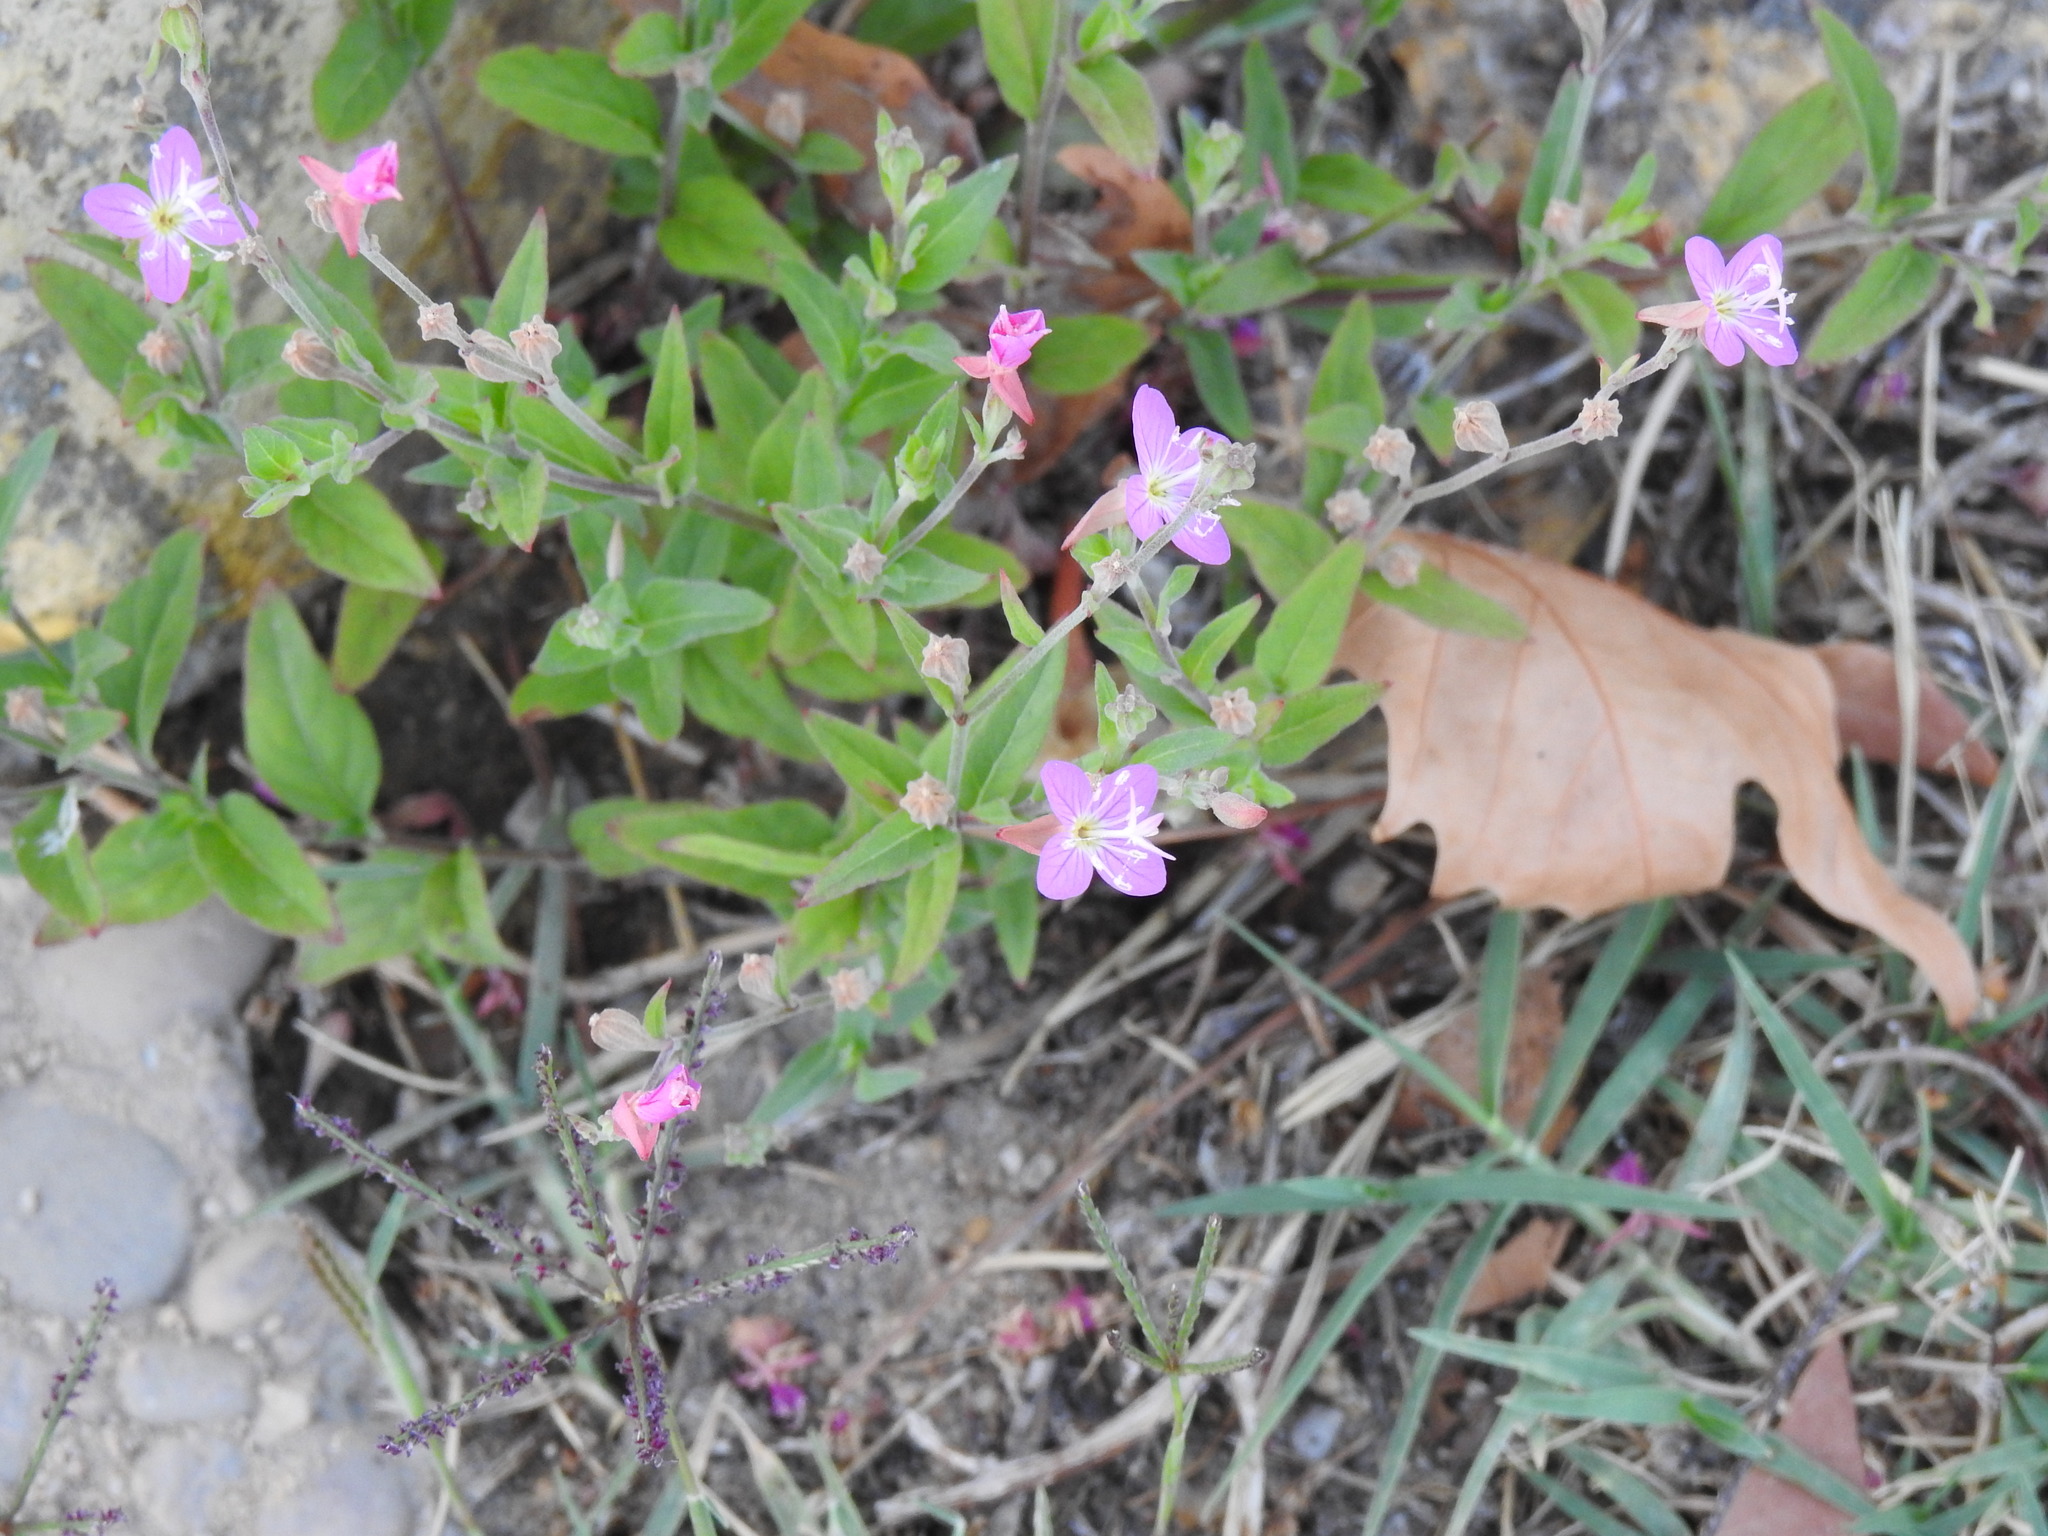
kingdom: Plantae
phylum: Tracheophyta
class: Magnoliopsida
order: Myrtales
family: Onagraceae
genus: Oenothera
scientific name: Oenothera rosea
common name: Rosy evening-primrose
